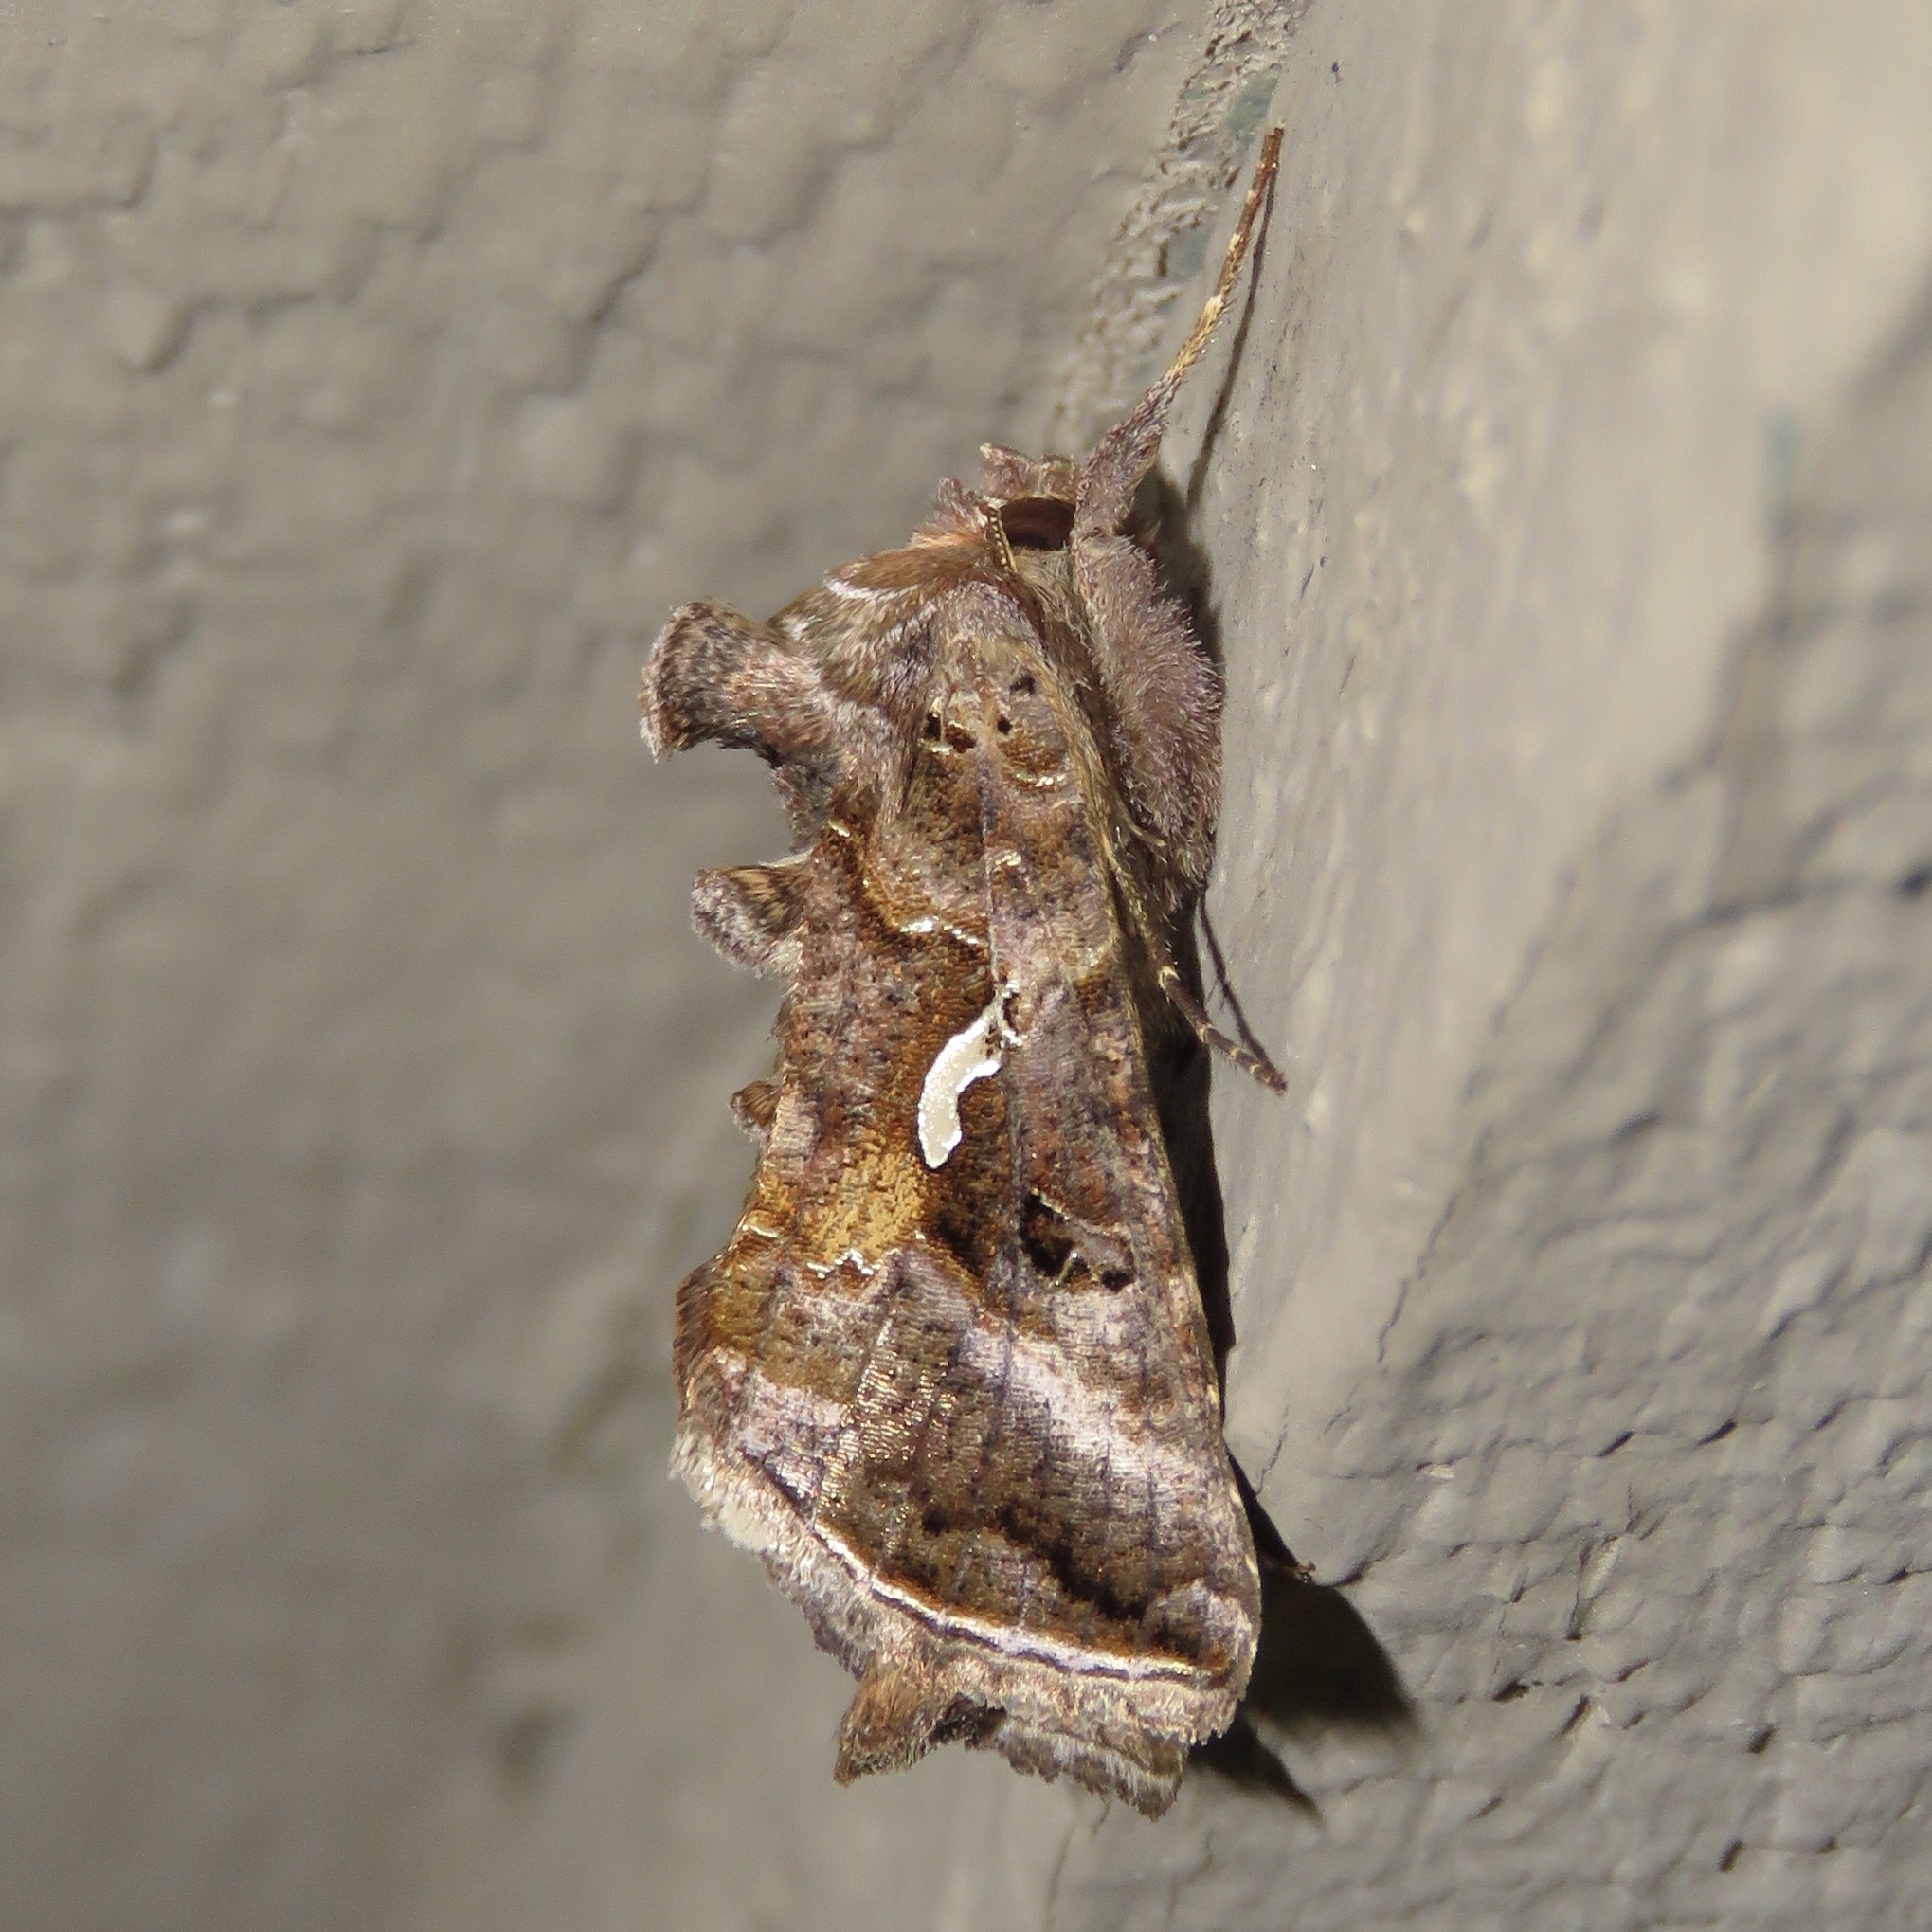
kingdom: Animalia
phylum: Arthropoda
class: Insecta
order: Lepidoptera
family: Noctuidae
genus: Autographa
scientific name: Autographa precationis
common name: Common looper moth
